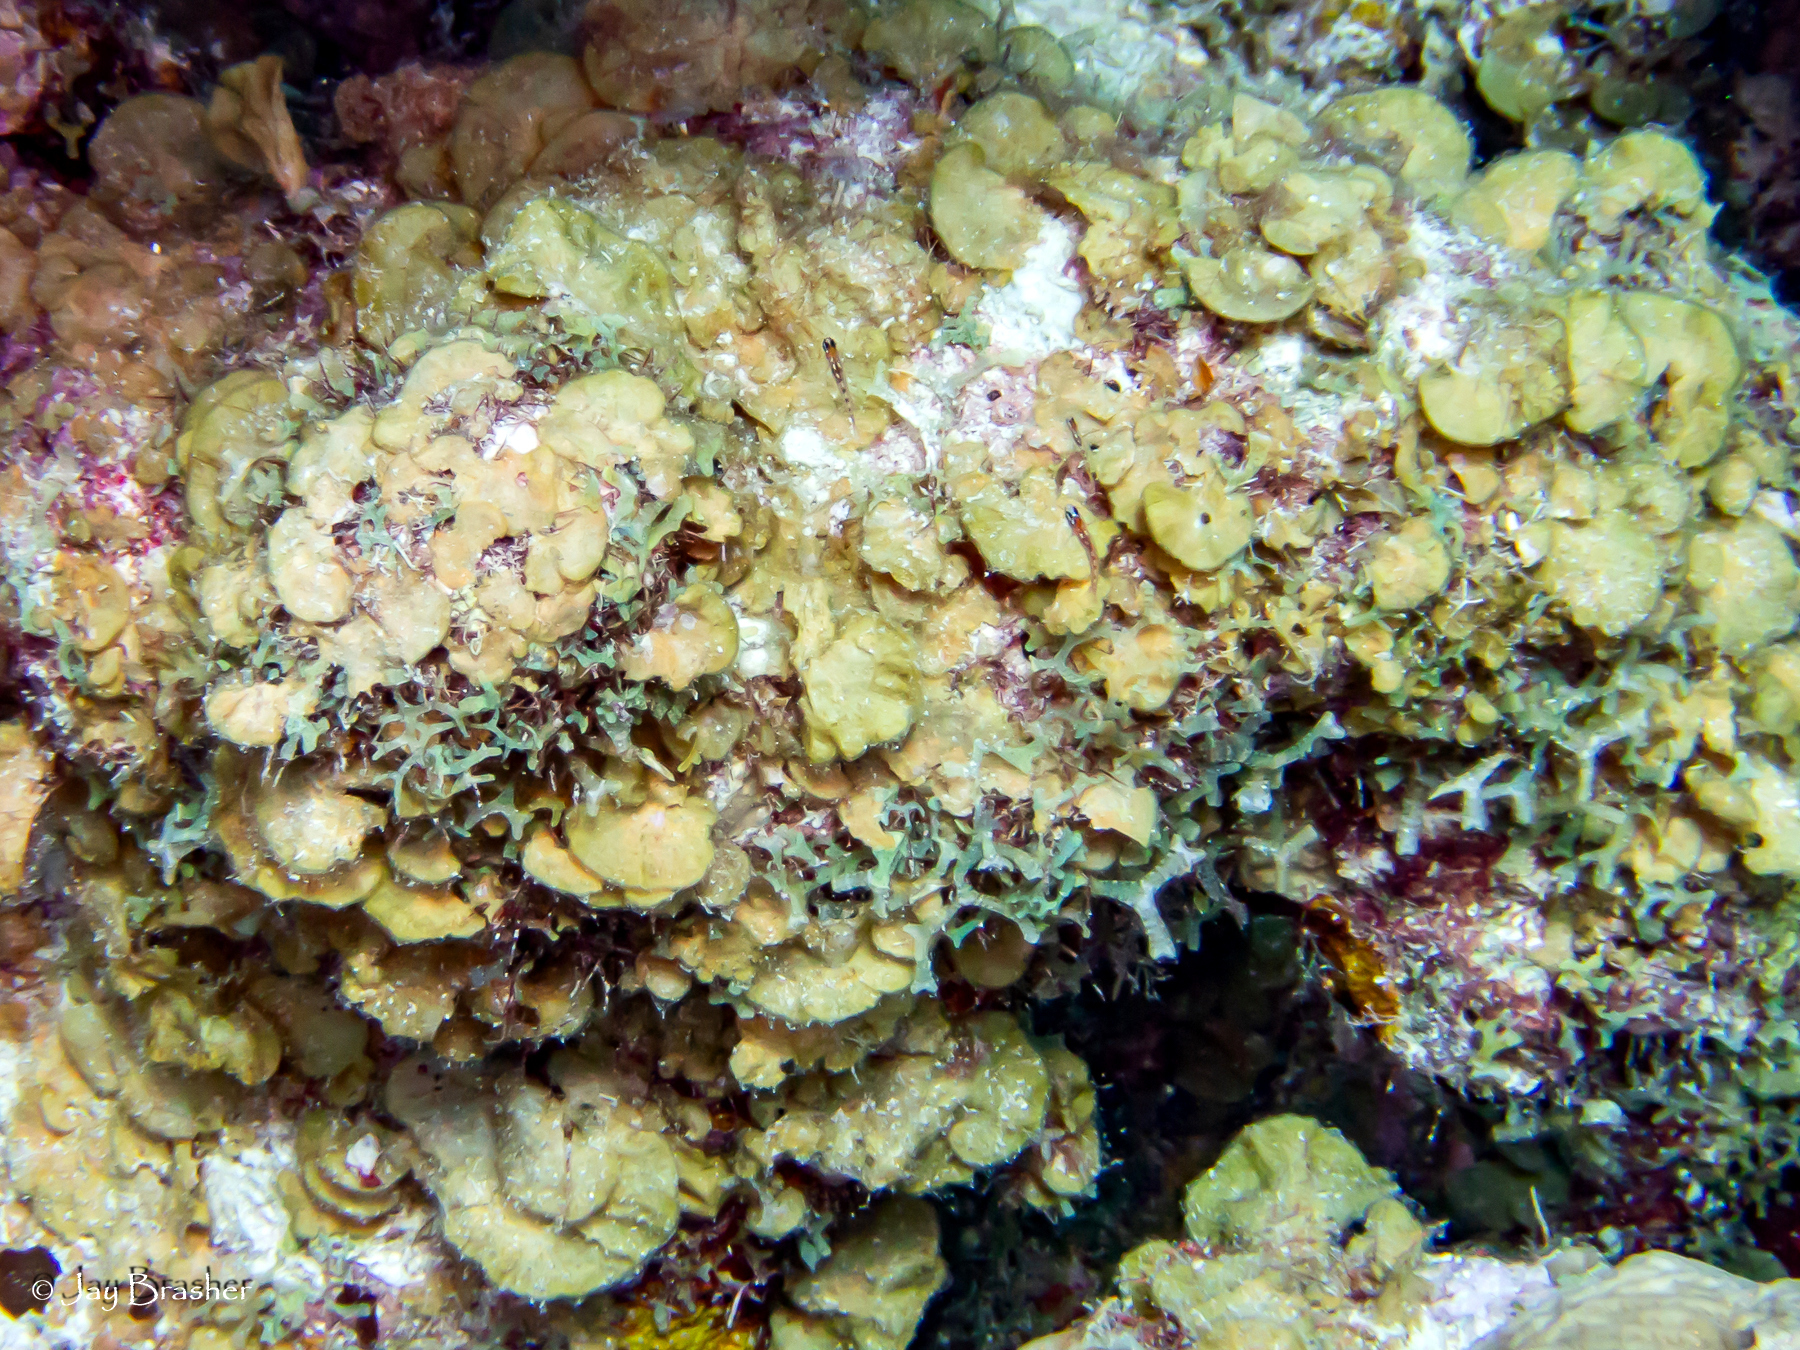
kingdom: Chromista
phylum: Ochrophyta
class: Phaeophyceae
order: Dictyotales
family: Dictyotaceae
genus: Lobophora
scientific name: Lobophora variegata
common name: Encrusting fan-leaf algae
